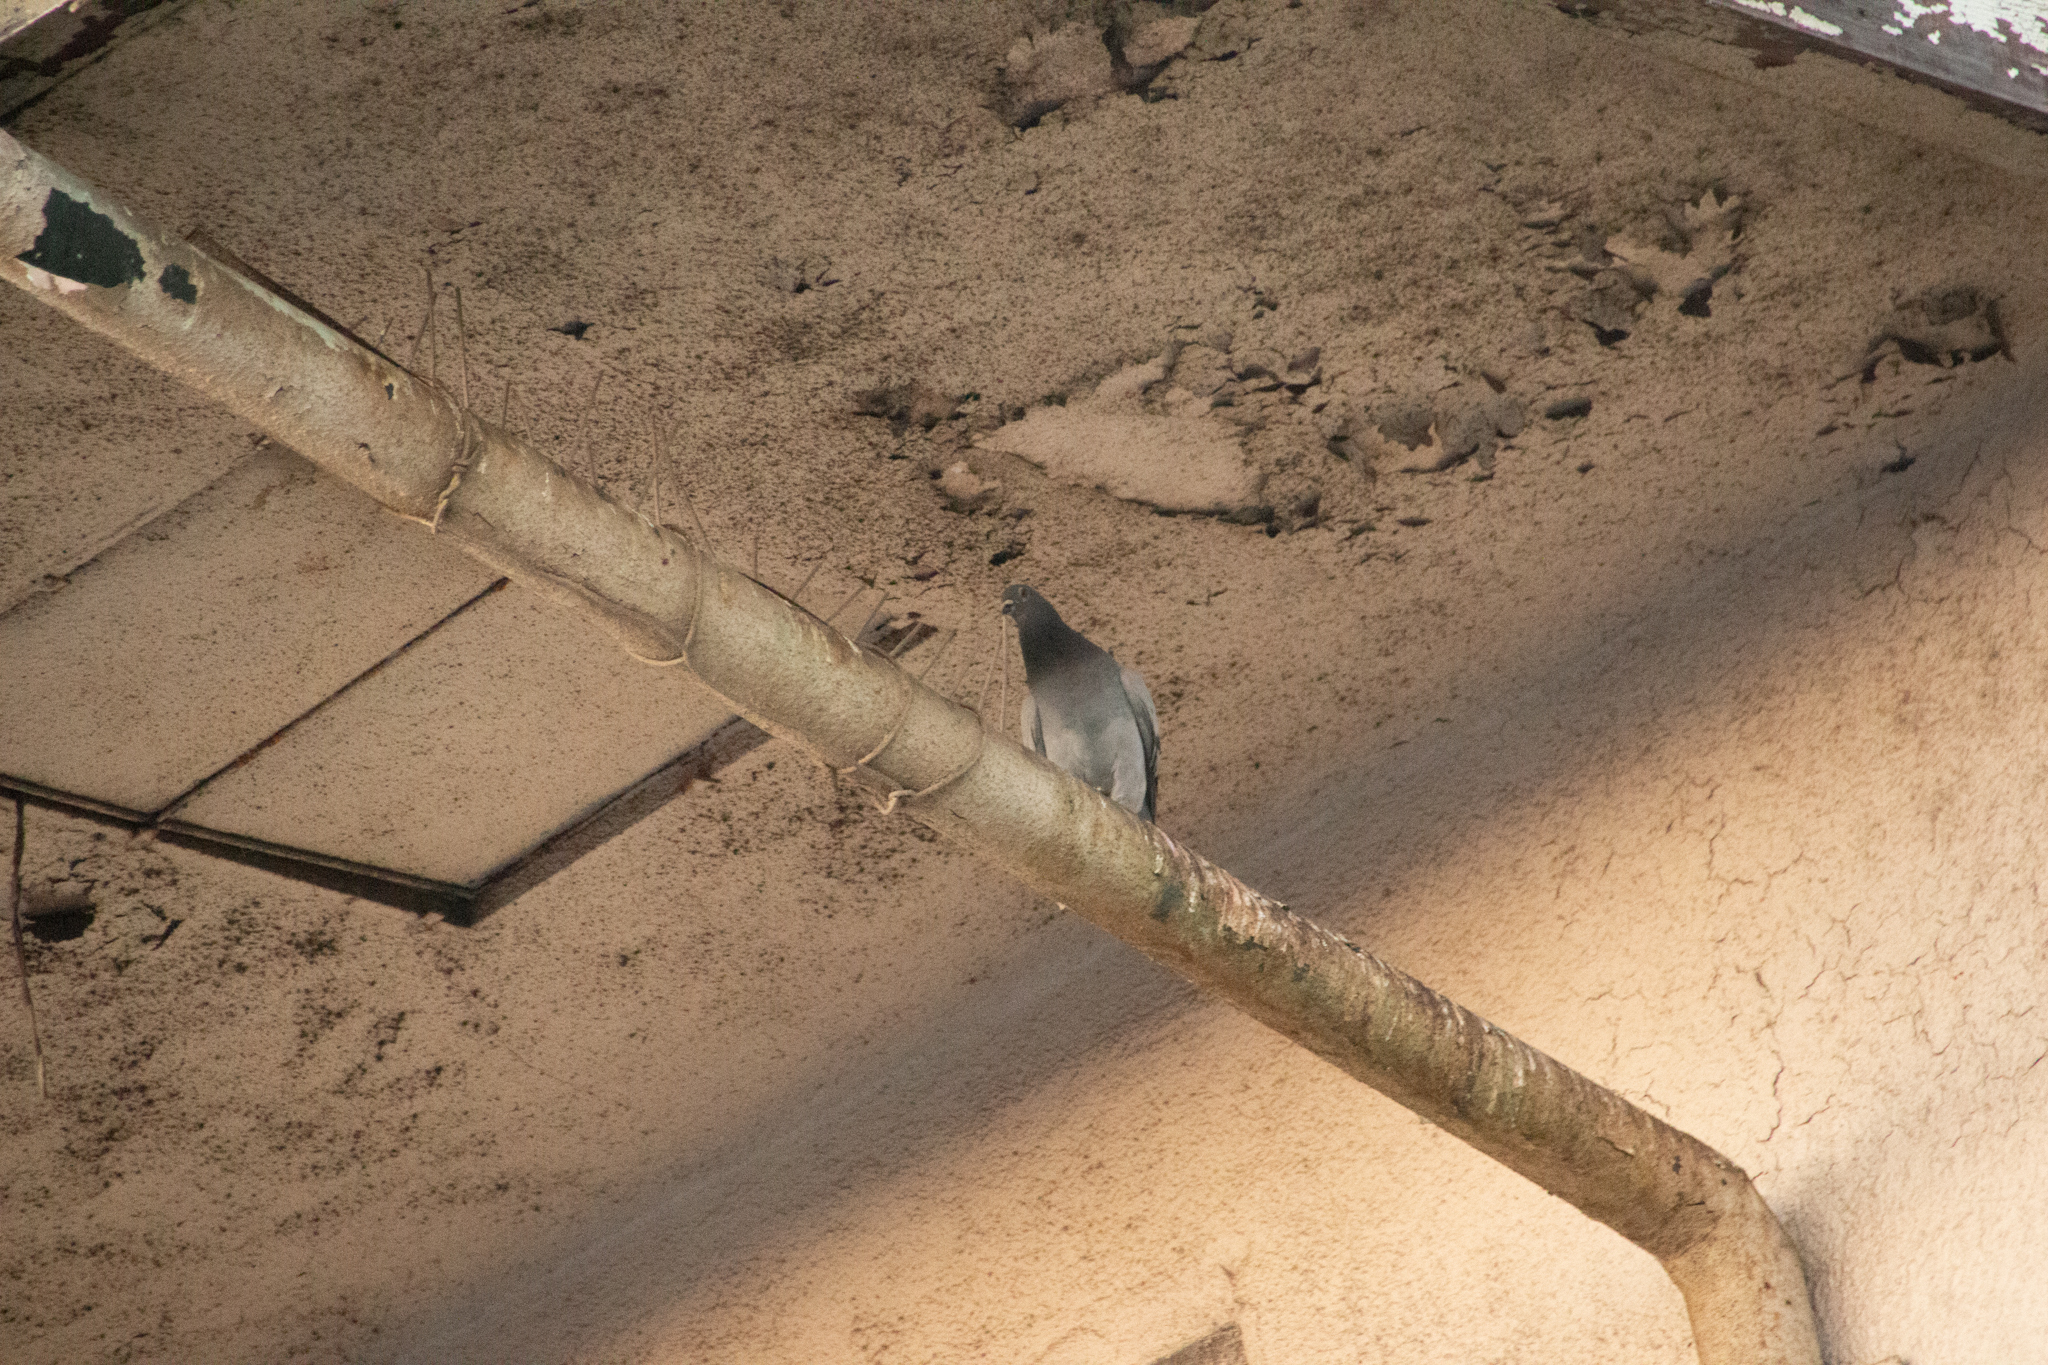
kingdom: Animalia
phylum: Chordata
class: Aves
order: Columbiformes
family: Columbidae
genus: Columba
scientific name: Columba livia
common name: Rock pigeon
